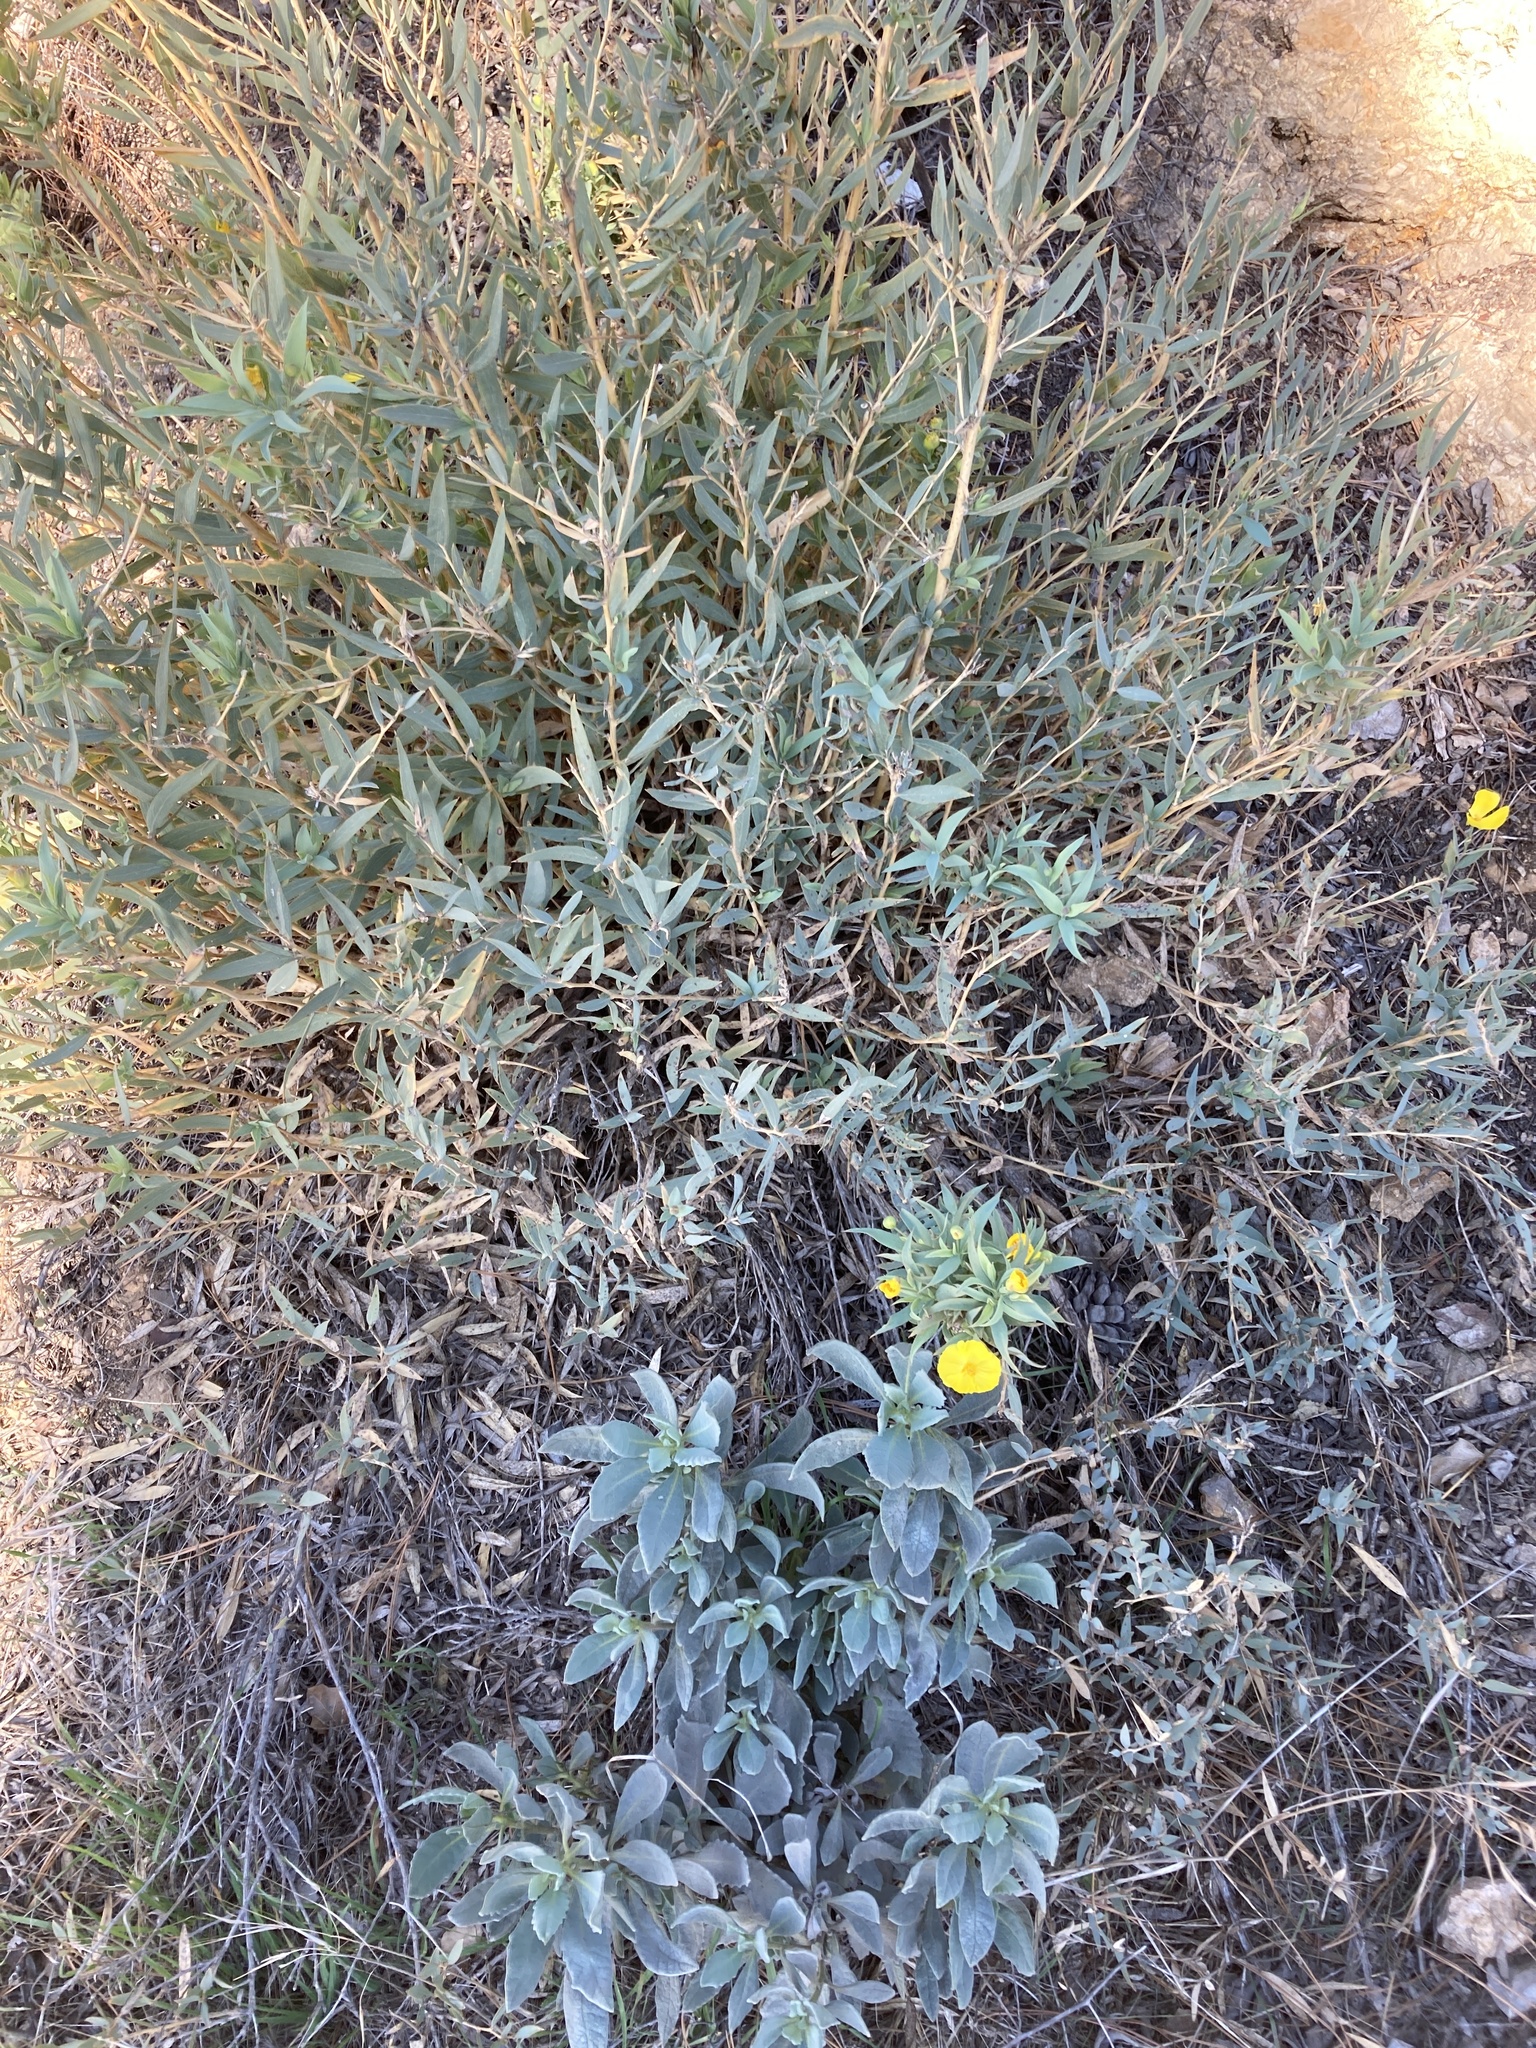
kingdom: Plantae
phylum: Tracheophyta
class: Magnoliopsida
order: Ranunculales
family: Papaveraceae
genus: Dendromecon
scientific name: Dendromecon rigida
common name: Tree poppy
